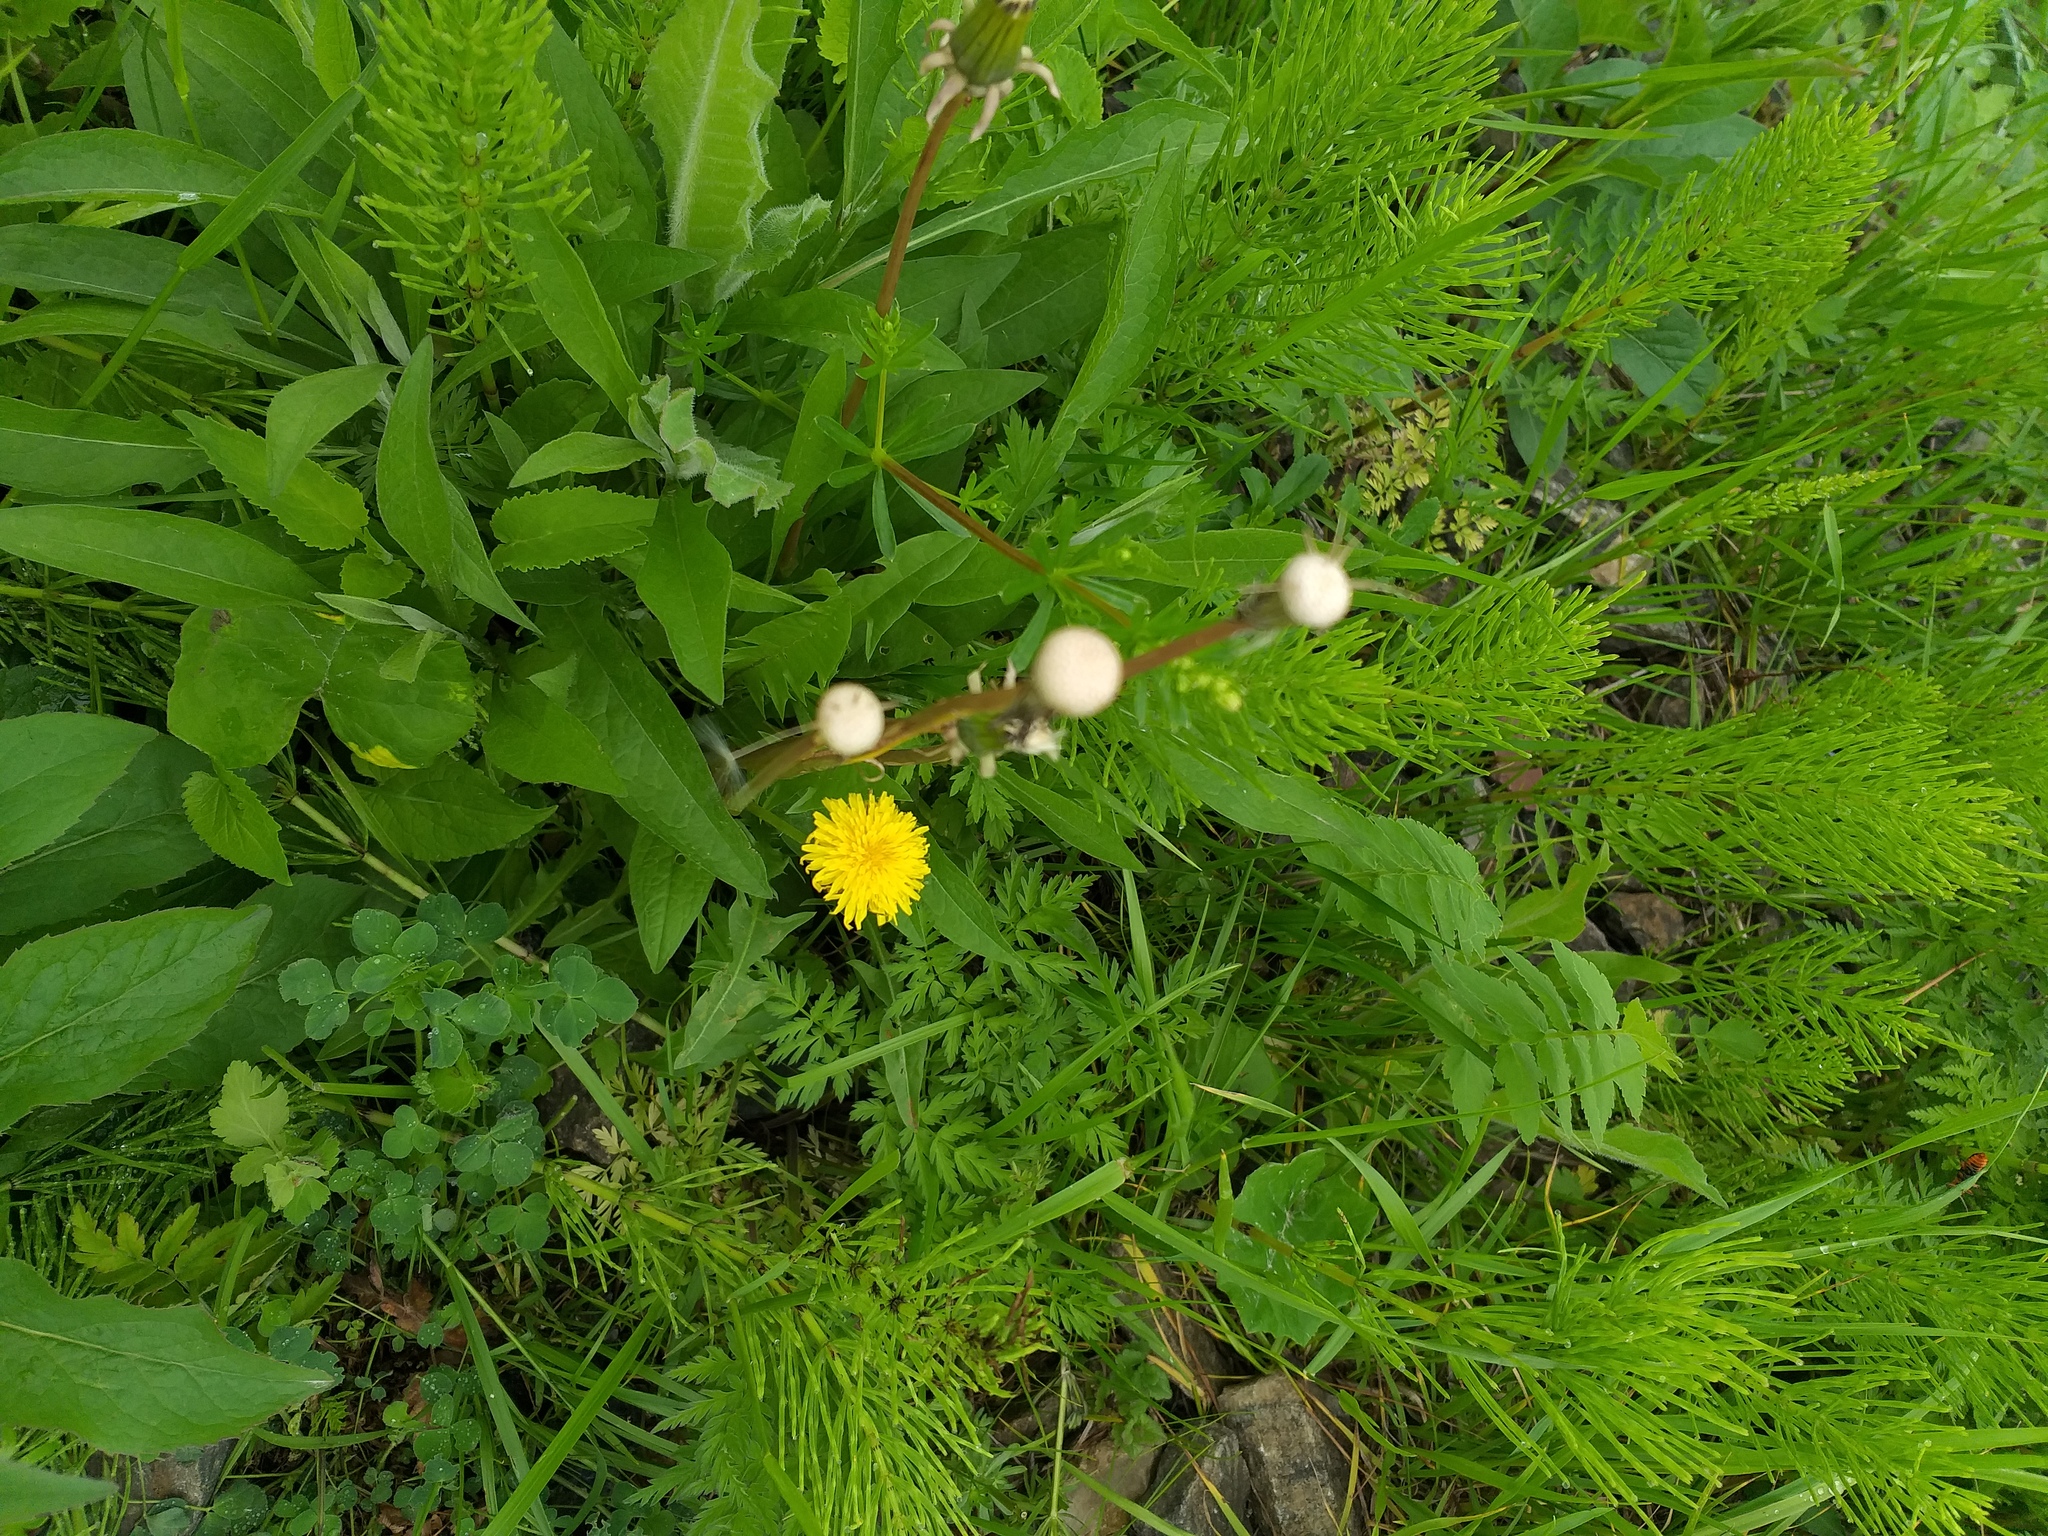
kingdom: Plantae
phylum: Tracheophyta
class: Magnoliopsida
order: Asterales
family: Asteraceae
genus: Taraxacum
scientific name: Taraxacum officinale
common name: Common dandelion
